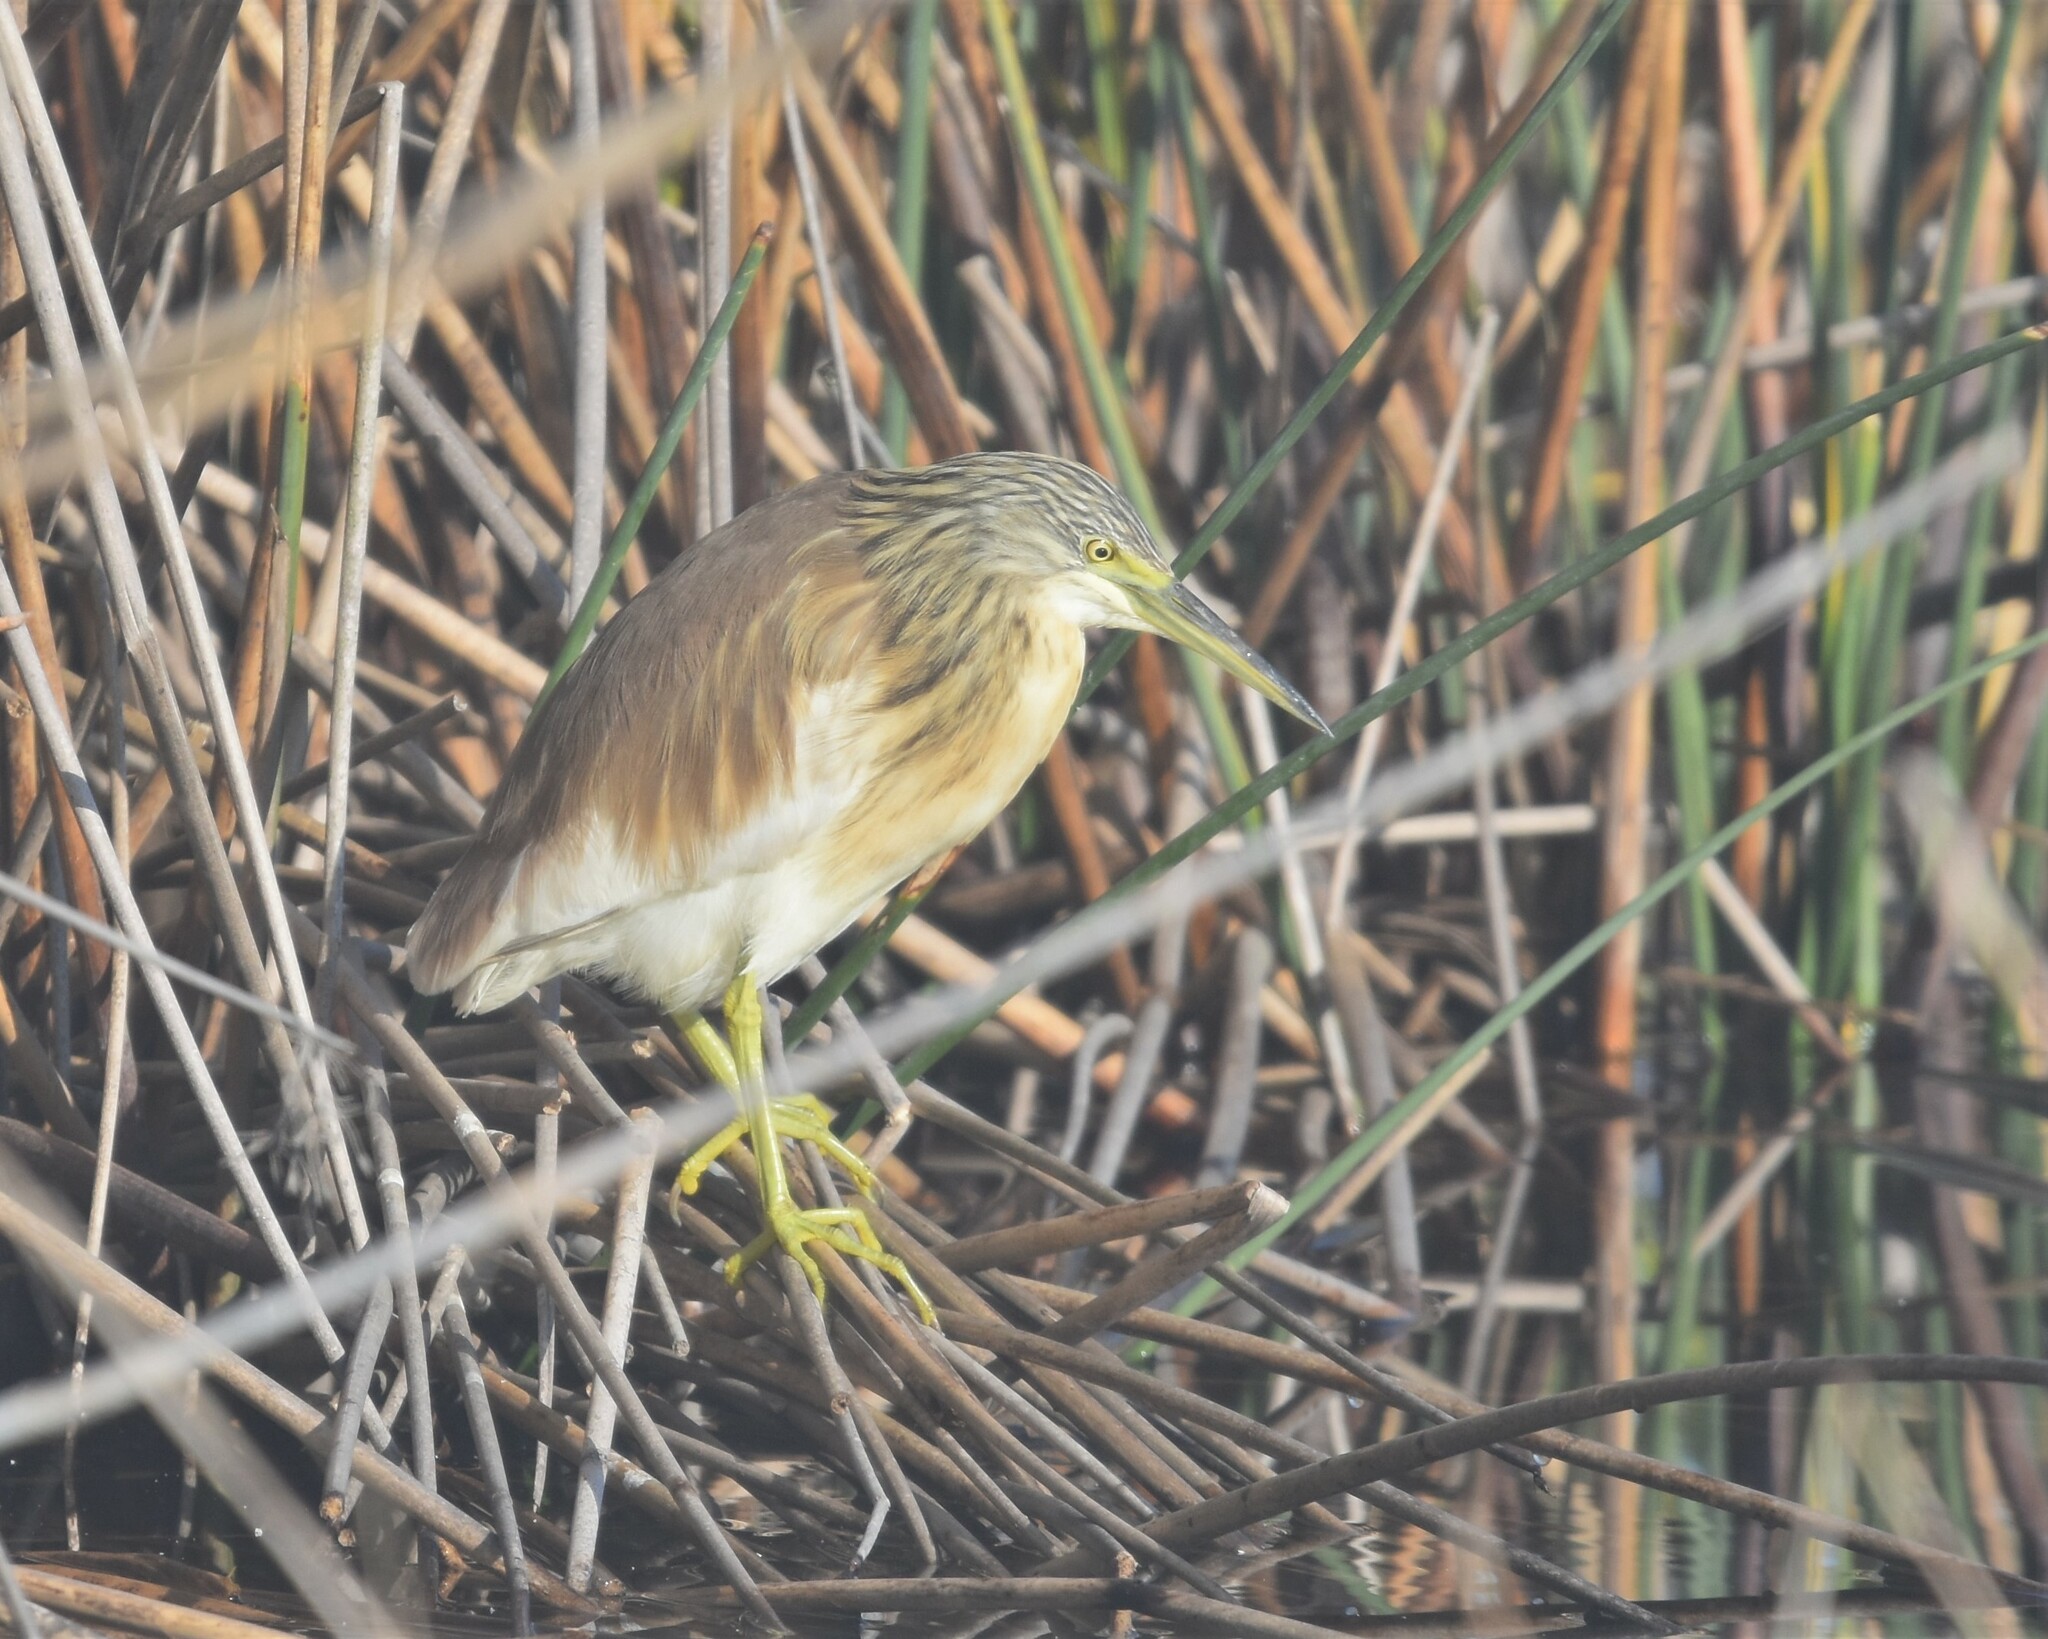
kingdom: Animalia
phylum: Chordata
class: Aves
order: Pelecaniformes
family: Ardeidae
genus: Ardeola
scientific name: Ardeola ralloides
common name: Squacco heron
